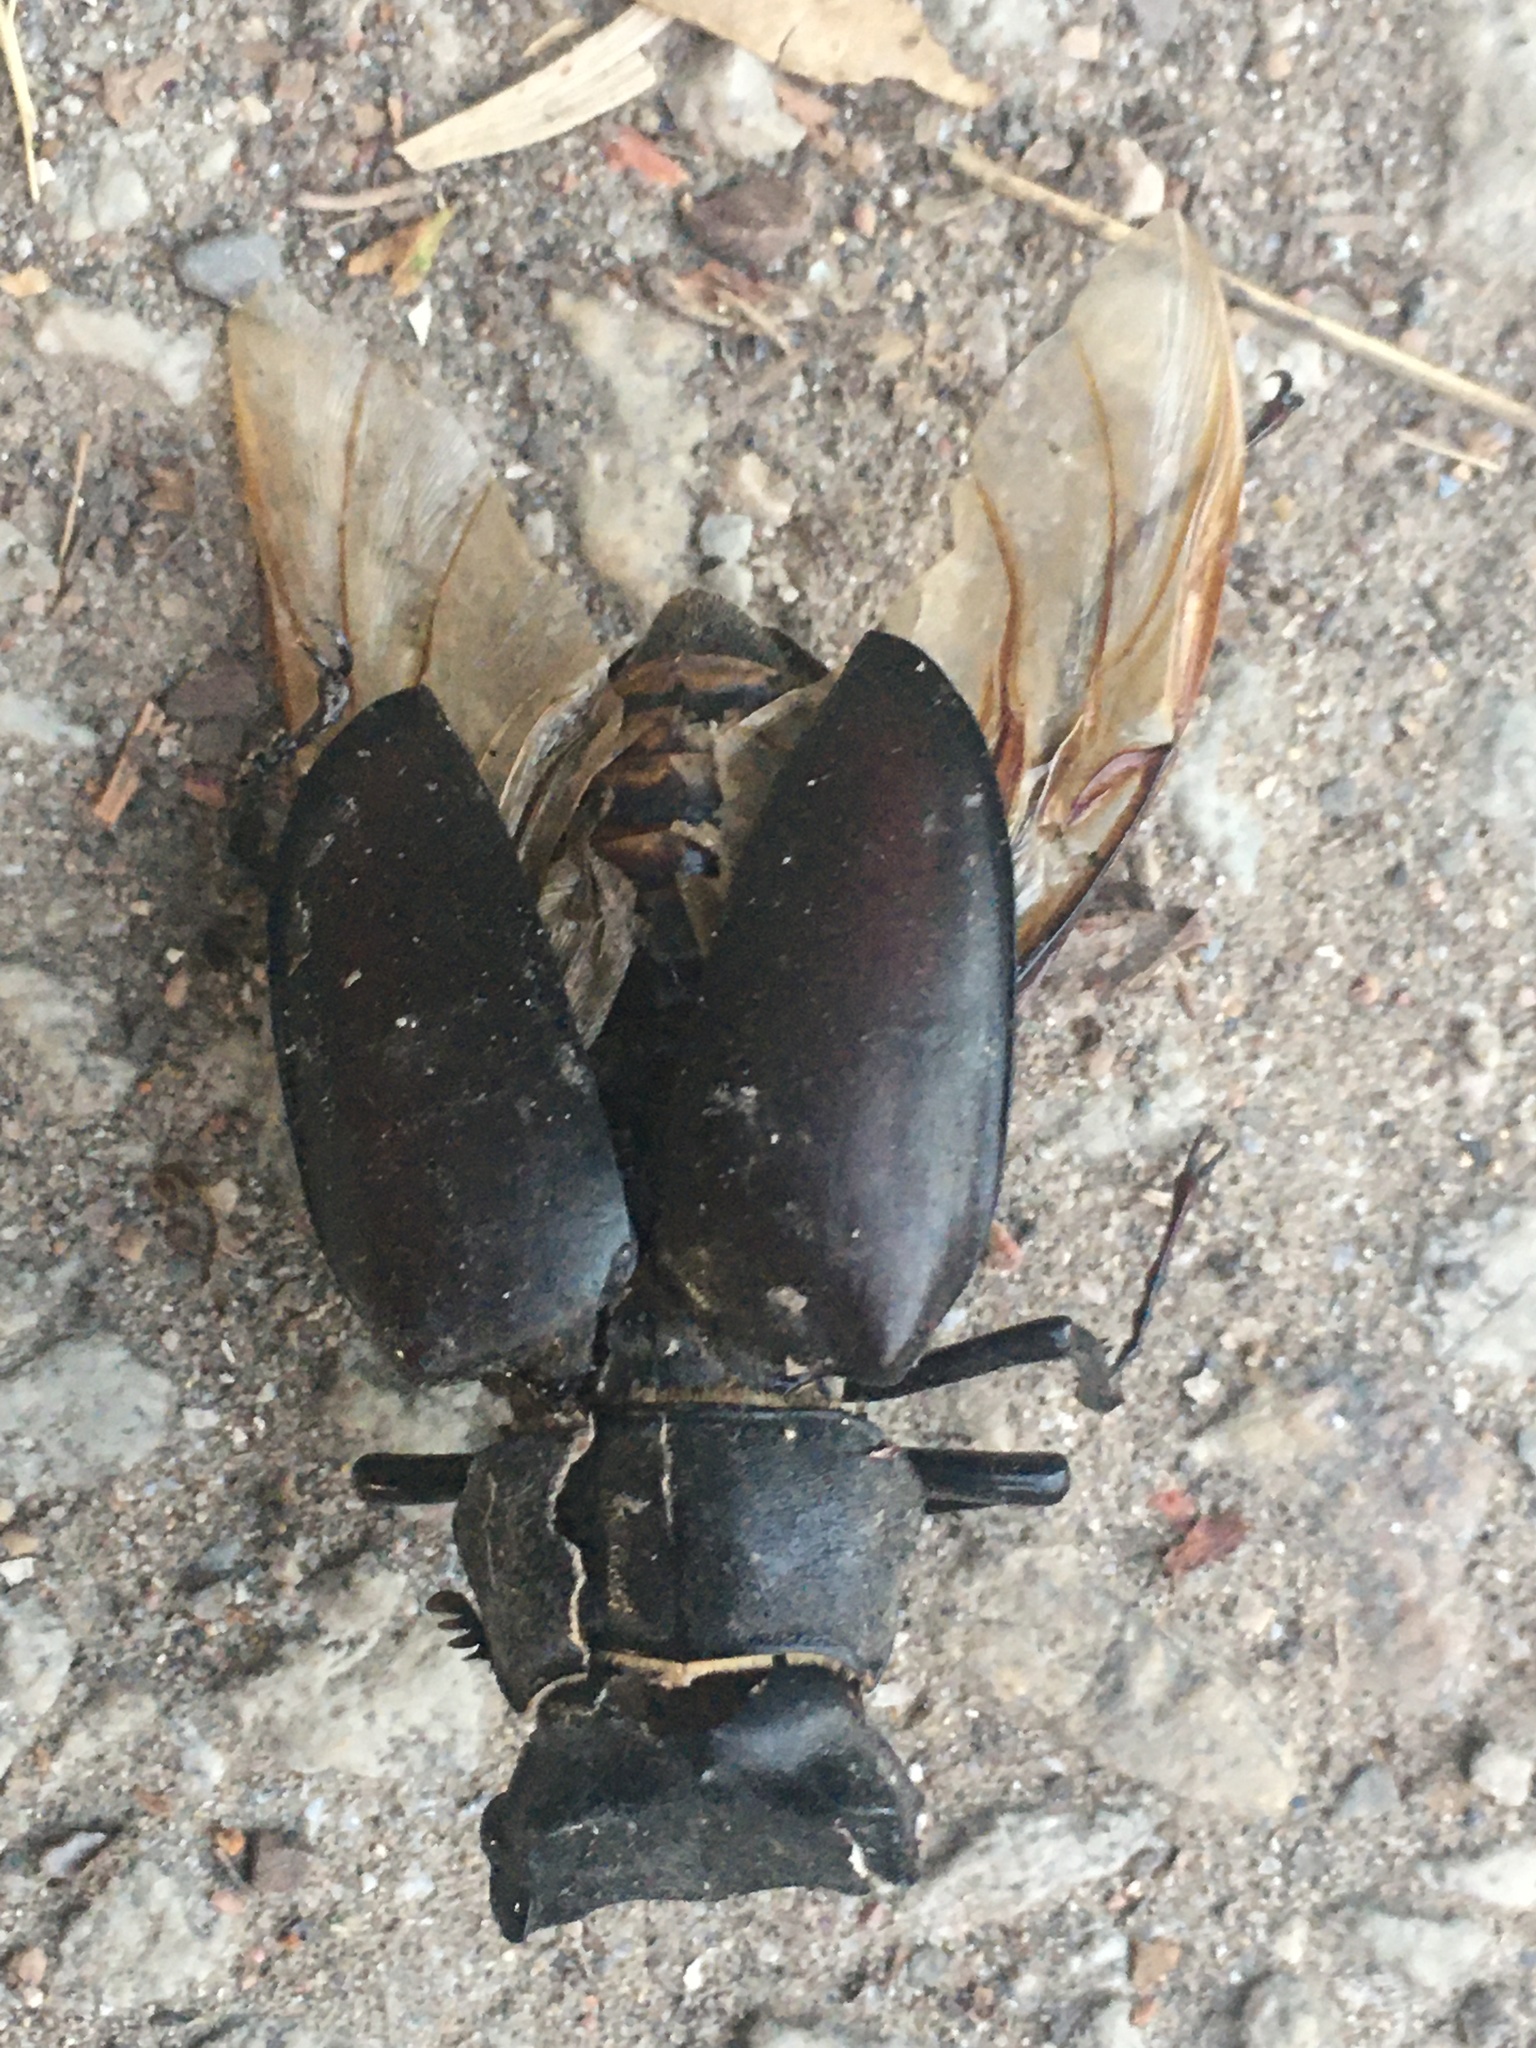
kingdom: Animalia
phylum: Arthropoda
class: Insecta
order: Coleoptera
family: Lucanidae
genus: Lucanus
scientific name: Lucanus cervus
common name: Stag beetle
